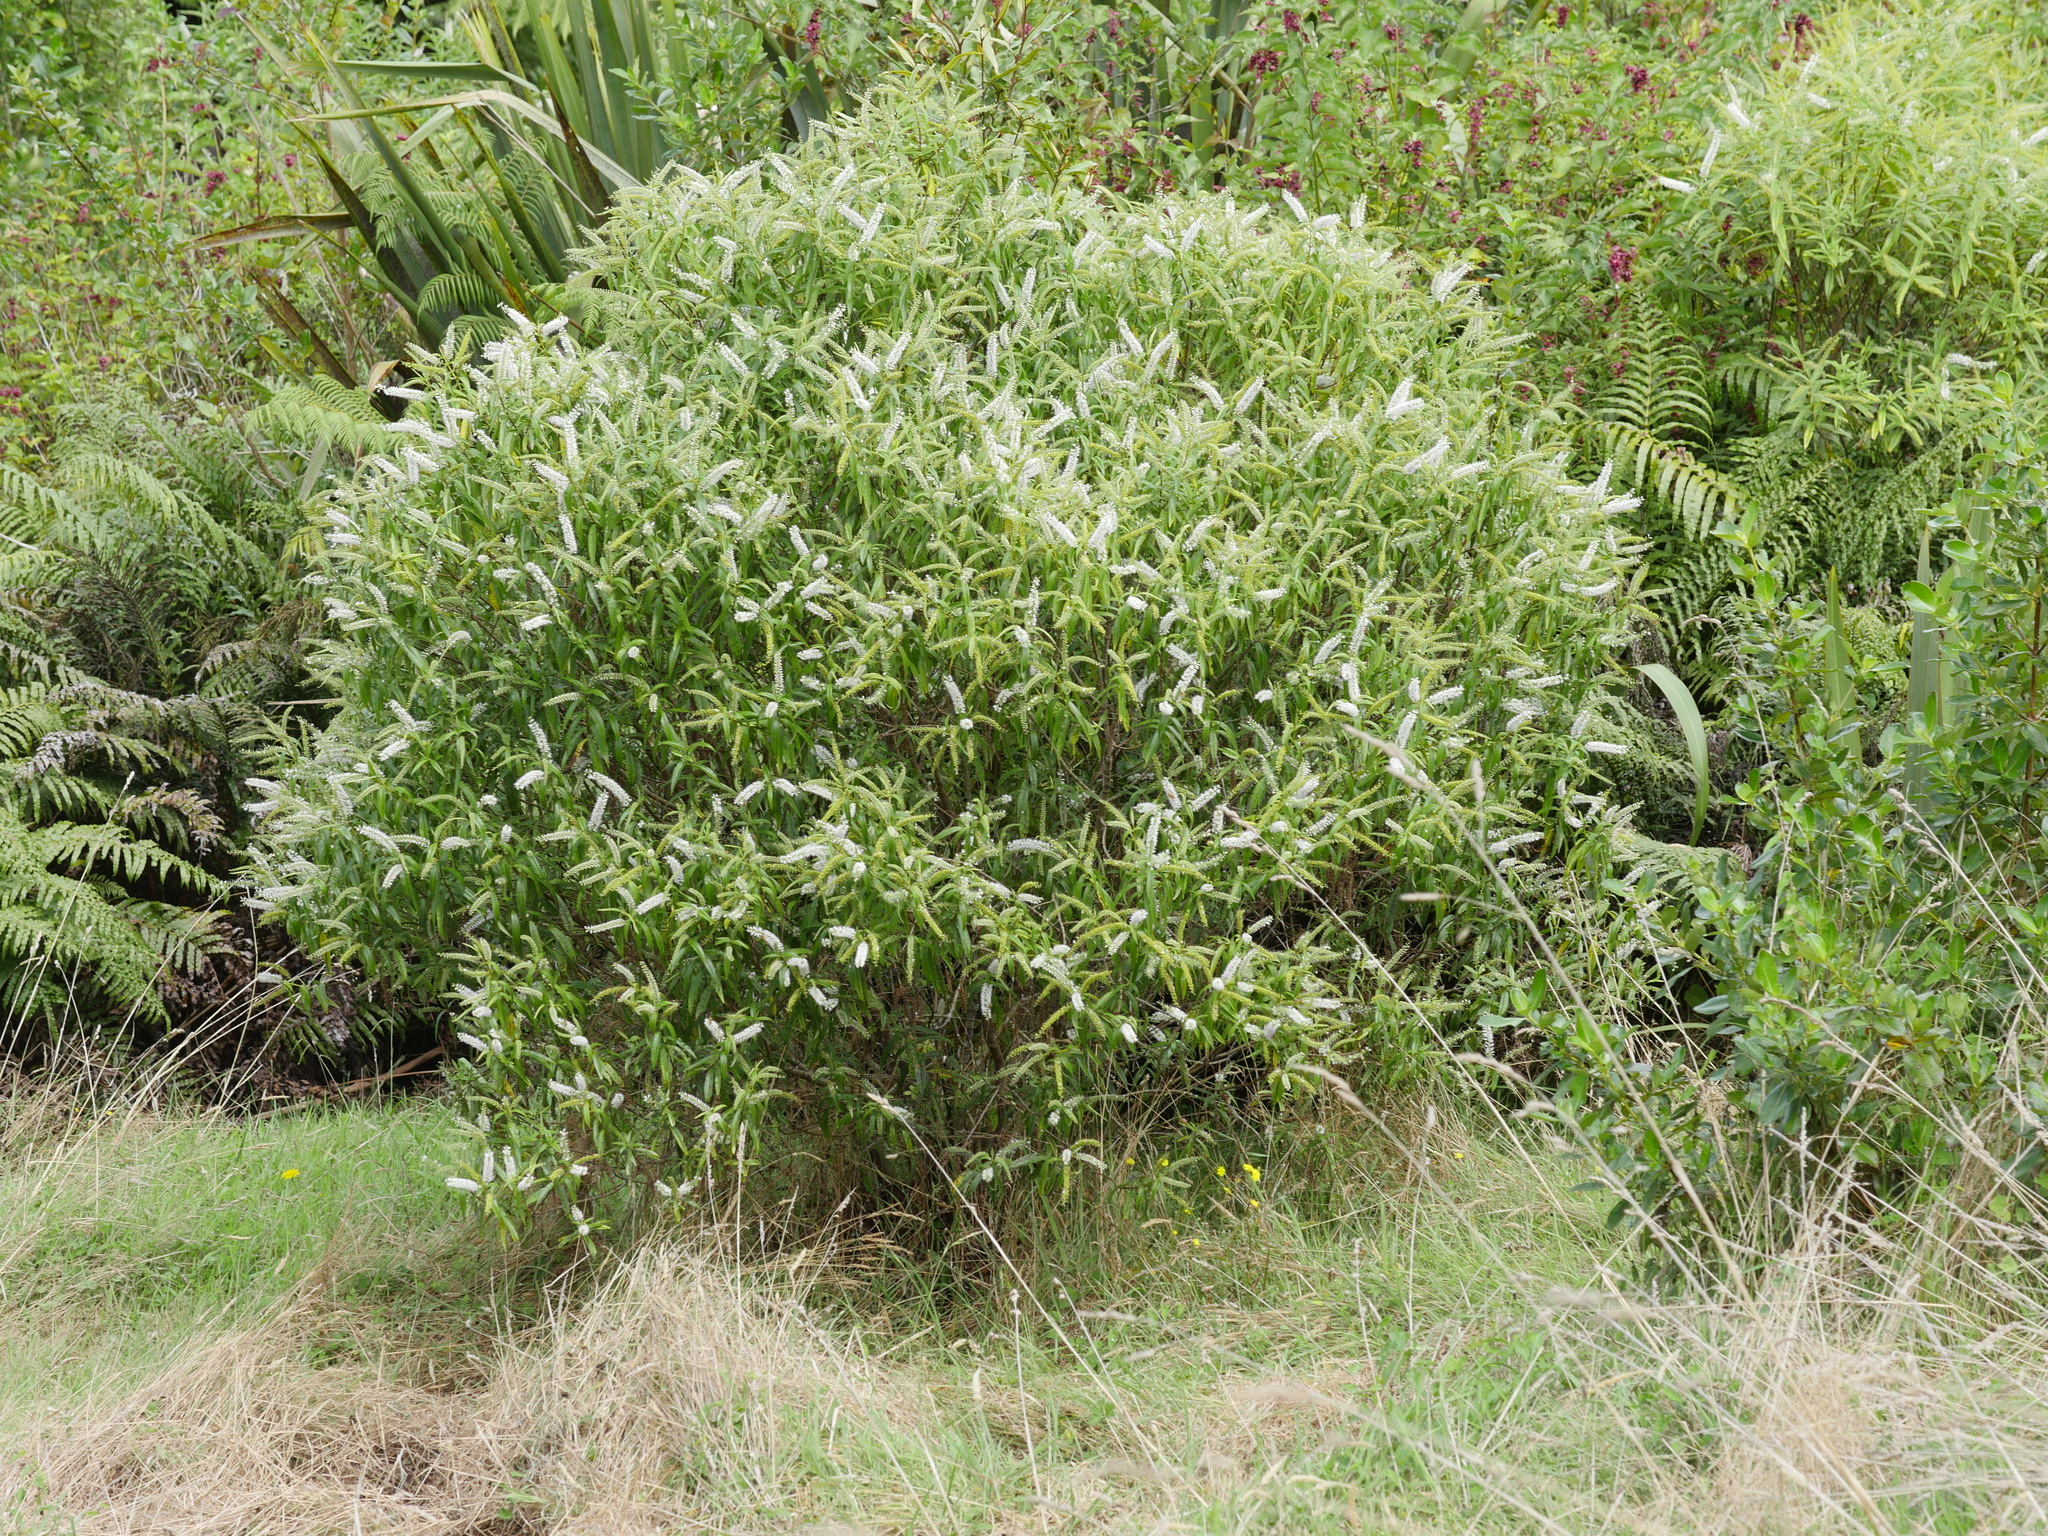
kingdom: Plantae
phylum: Tracheophyta
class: Magnoliopsida
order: Lamiales
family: Plantaginaceae
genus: Veronica
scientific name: Veronica stricta
